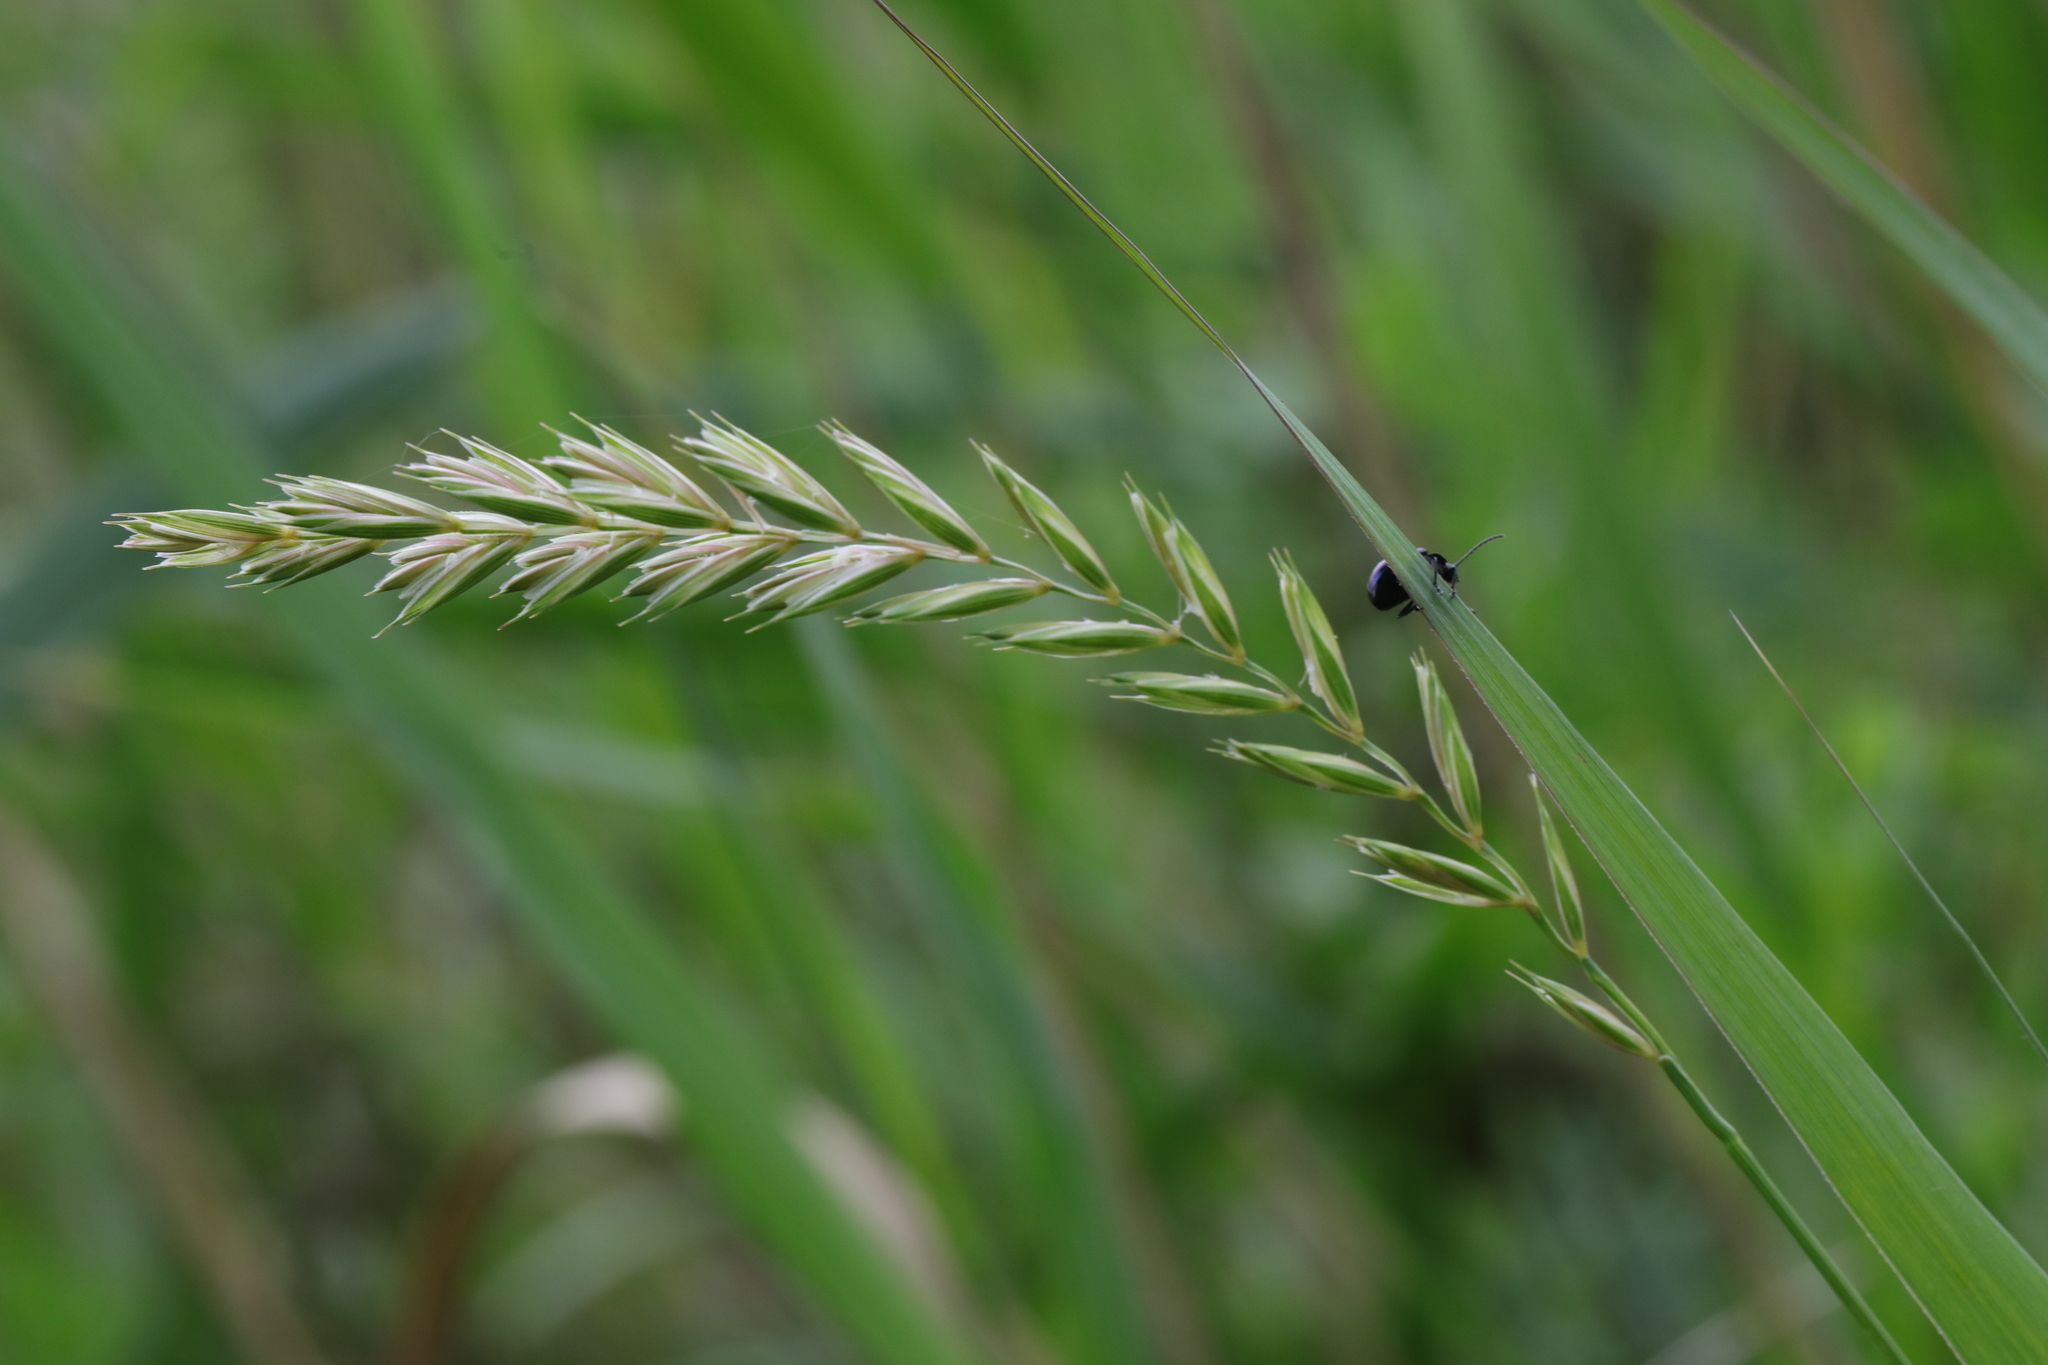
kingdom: Plantae
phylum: Tracheophyta
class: Liliopsida
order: Poales
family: Poaceae
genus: Elymus
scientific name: Elymus repens
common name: Quackgrass
